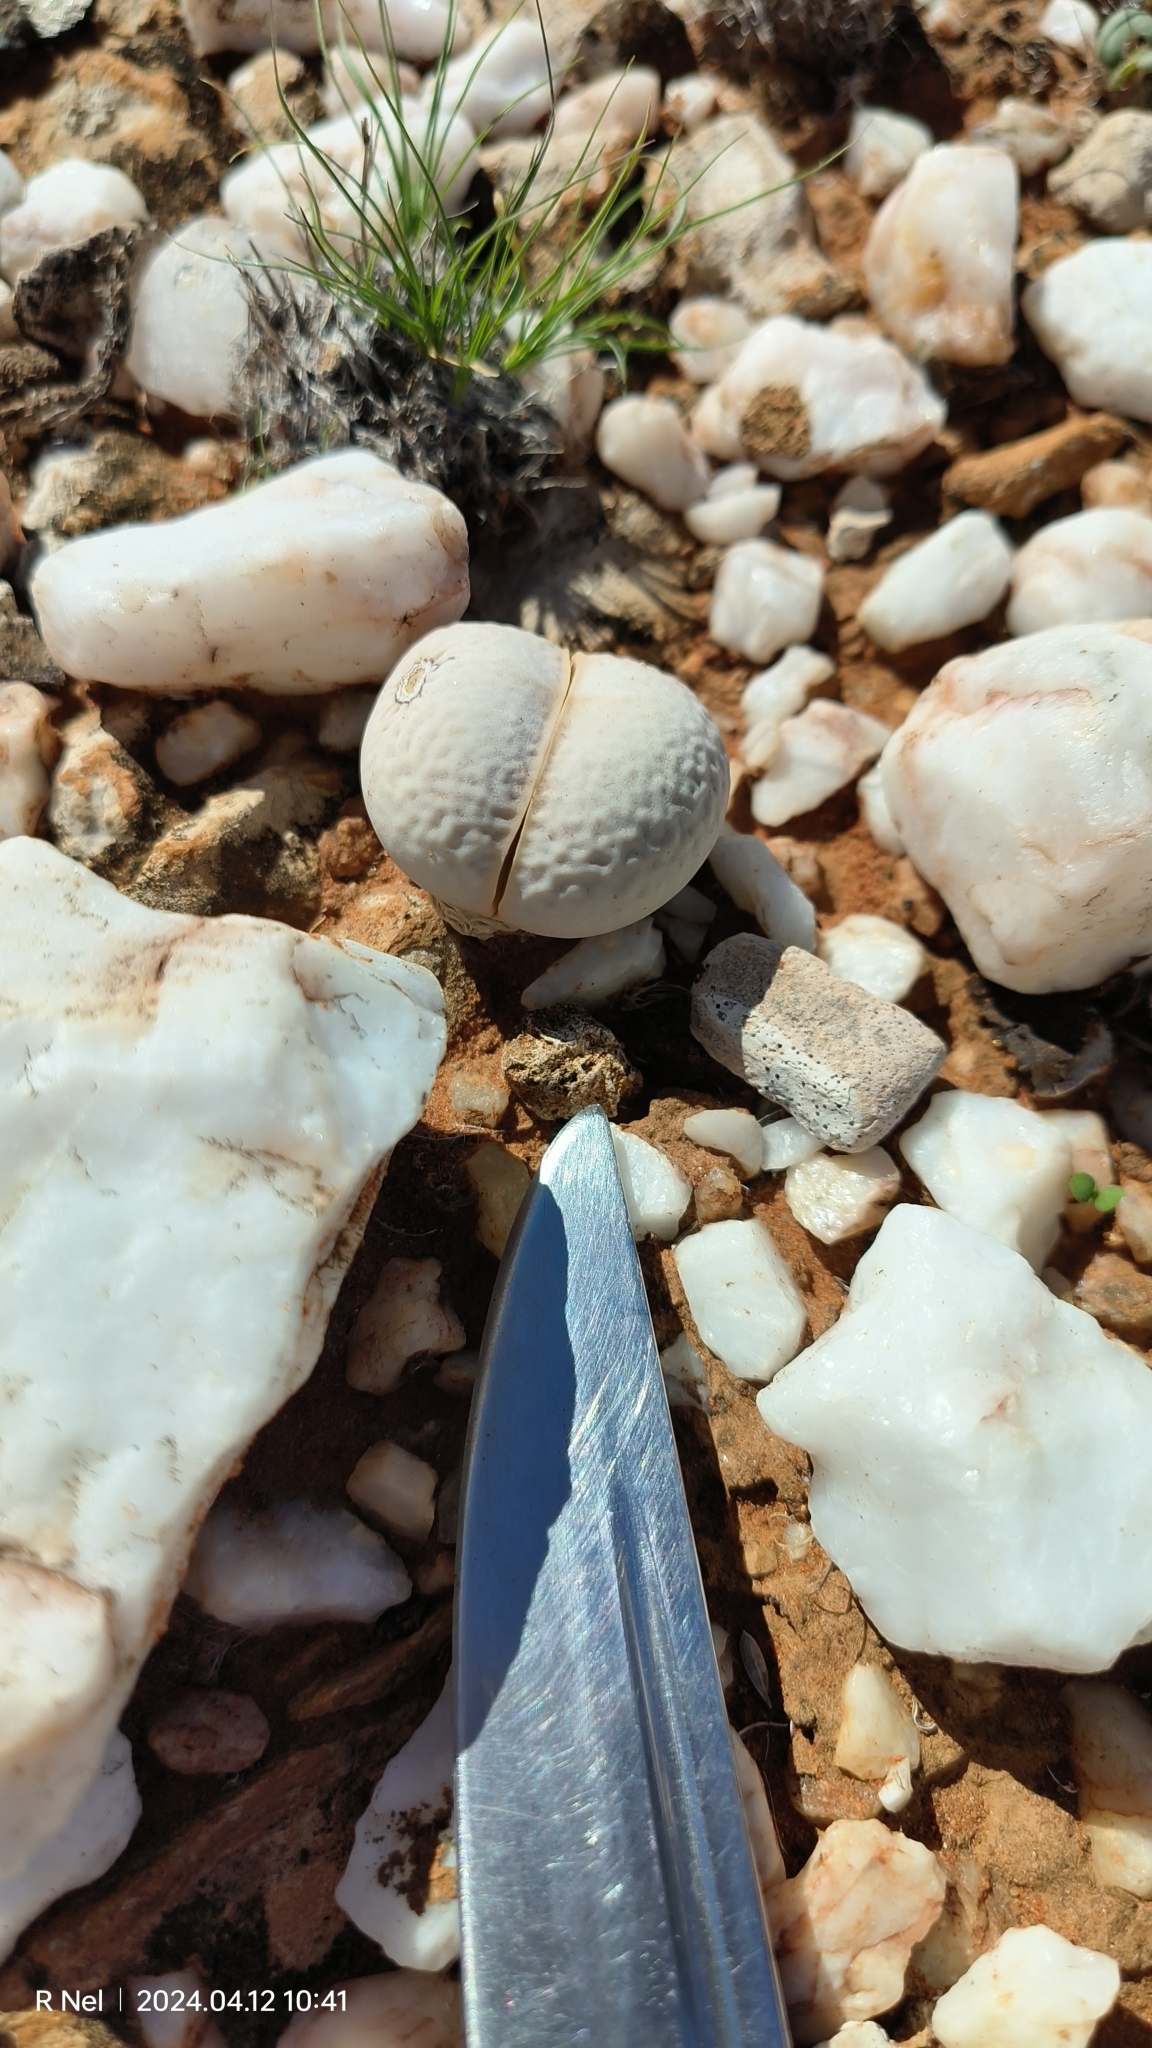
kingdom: Plantae
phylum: Tracheophyta
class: Magnoliopsida
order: Caryophyllales
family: Aizoaceae
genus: Dinteranthus
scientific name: Dinteranthus pole-evansii
